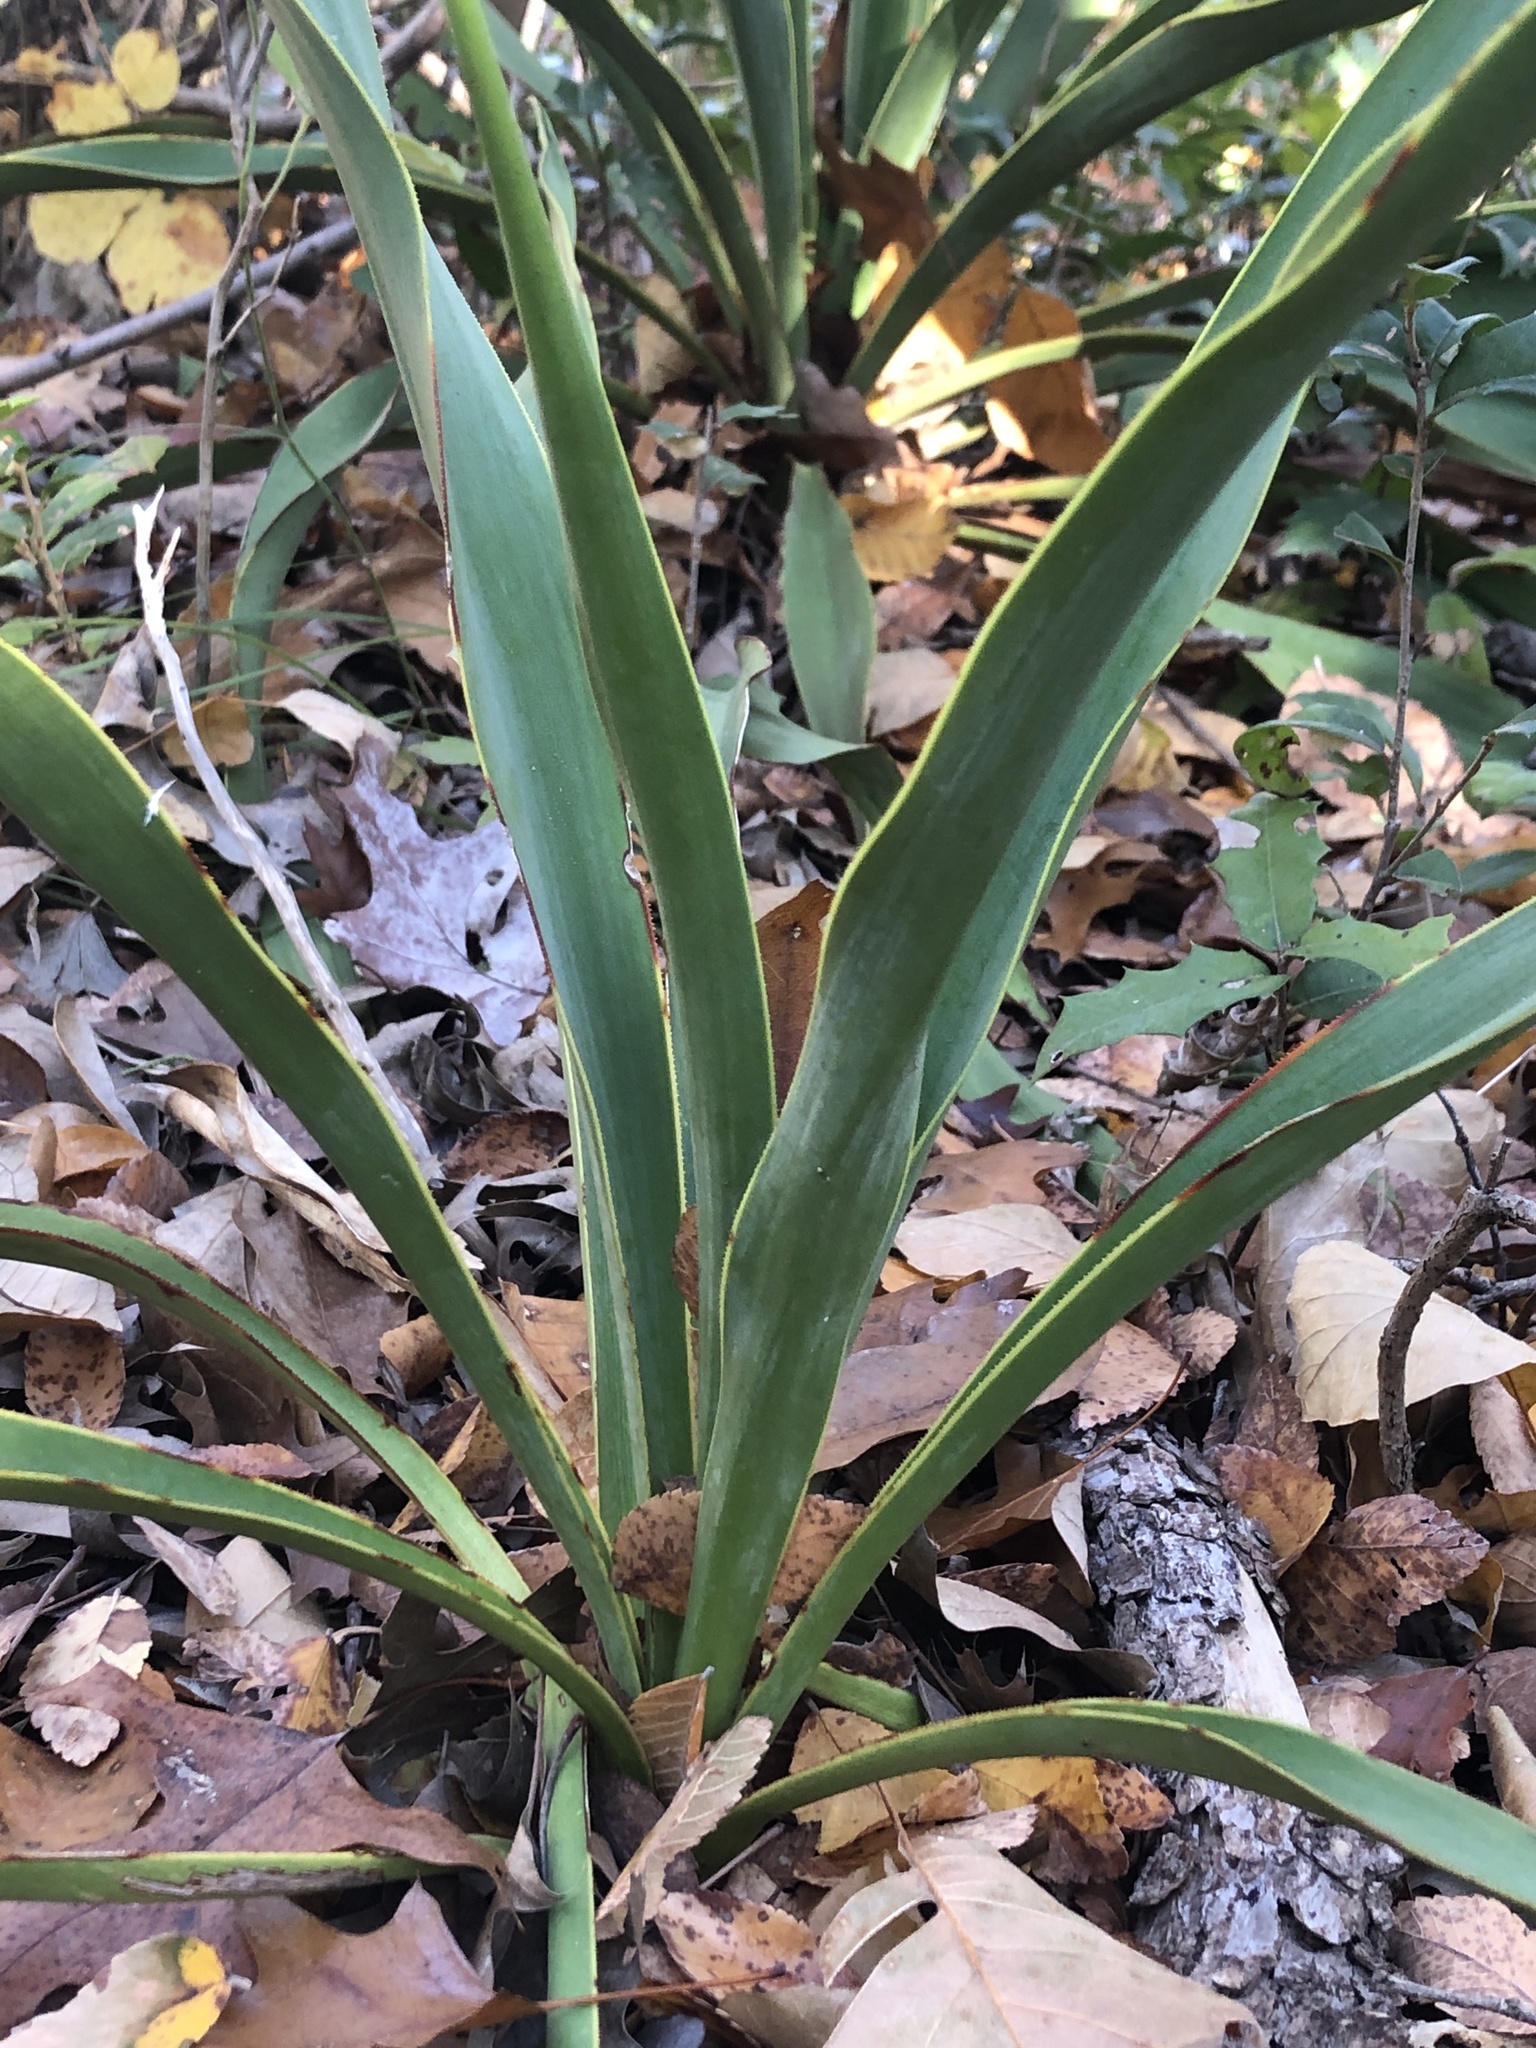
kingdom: Plantae
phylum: Tracheophyta
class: Liliopsida
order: Asparagales
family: Asparagaceae
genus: Yucca
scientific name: Yucca rupicola
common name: Twisted-leaf spanish-dagger
